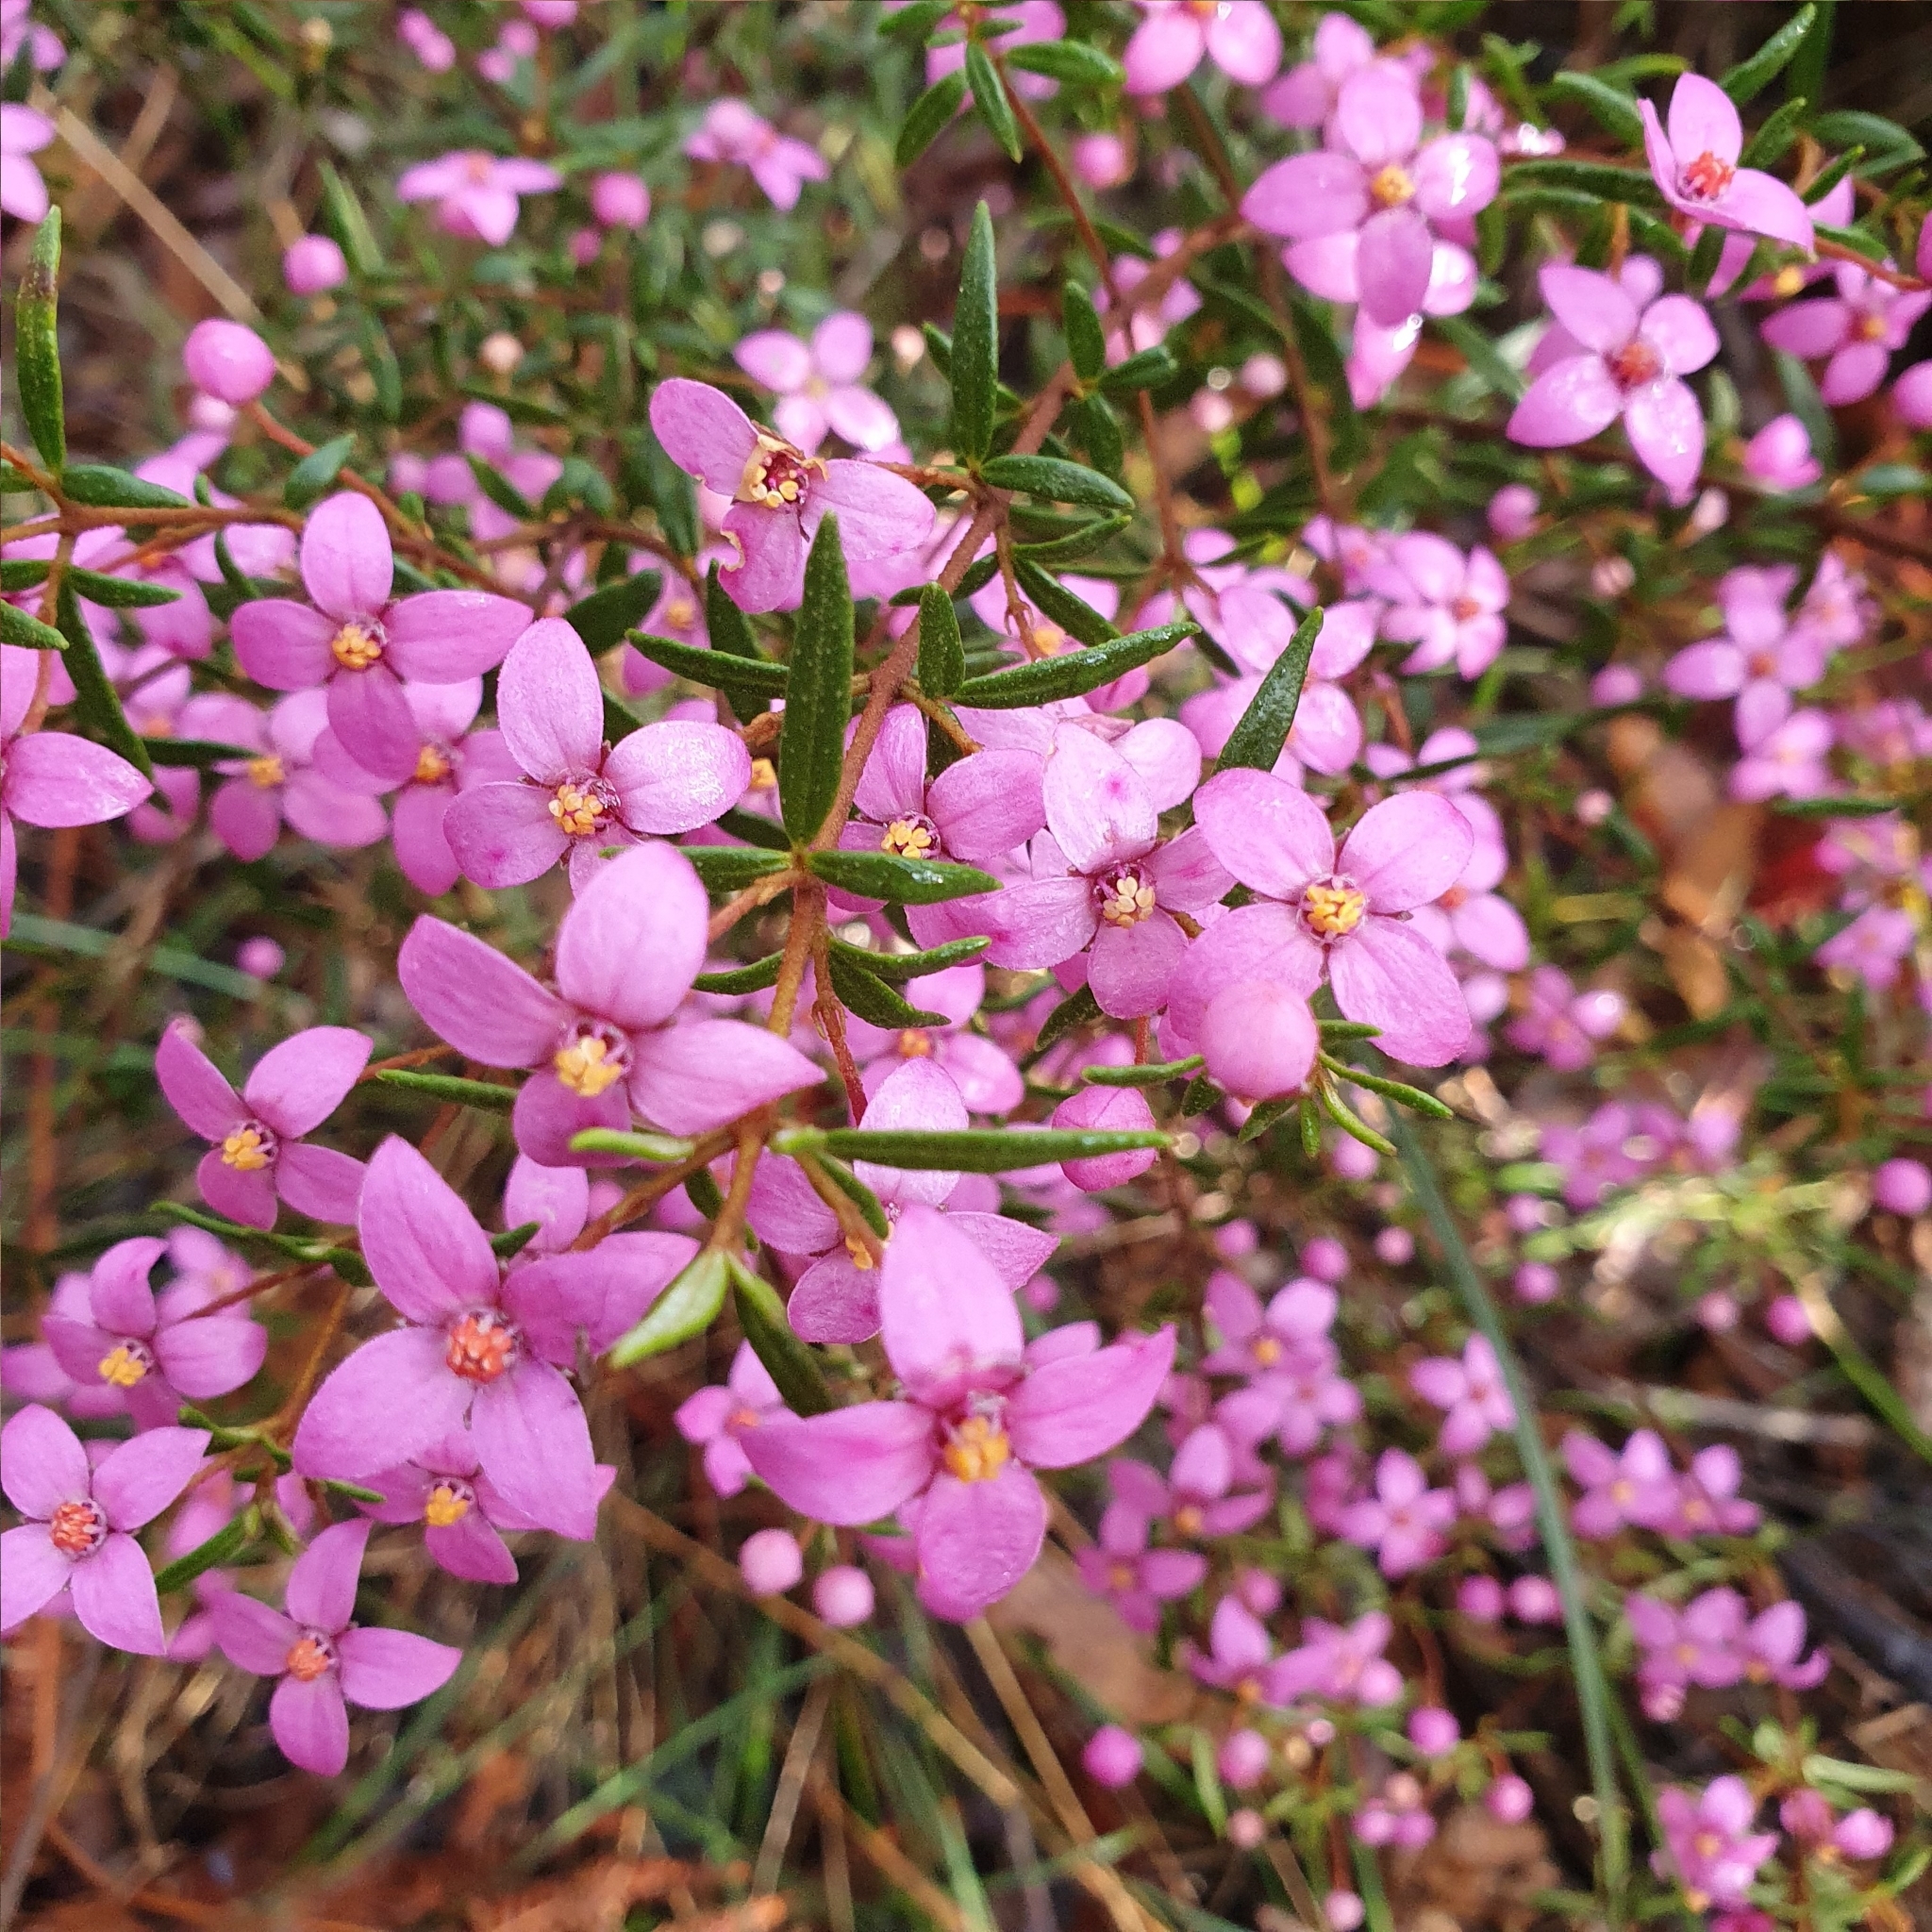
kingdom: Plantae
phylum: Tracheophyta
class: Magnoliopsida
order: Sapindales
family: Rutaceae
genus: Boronia
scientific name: Boronia ledifolia
